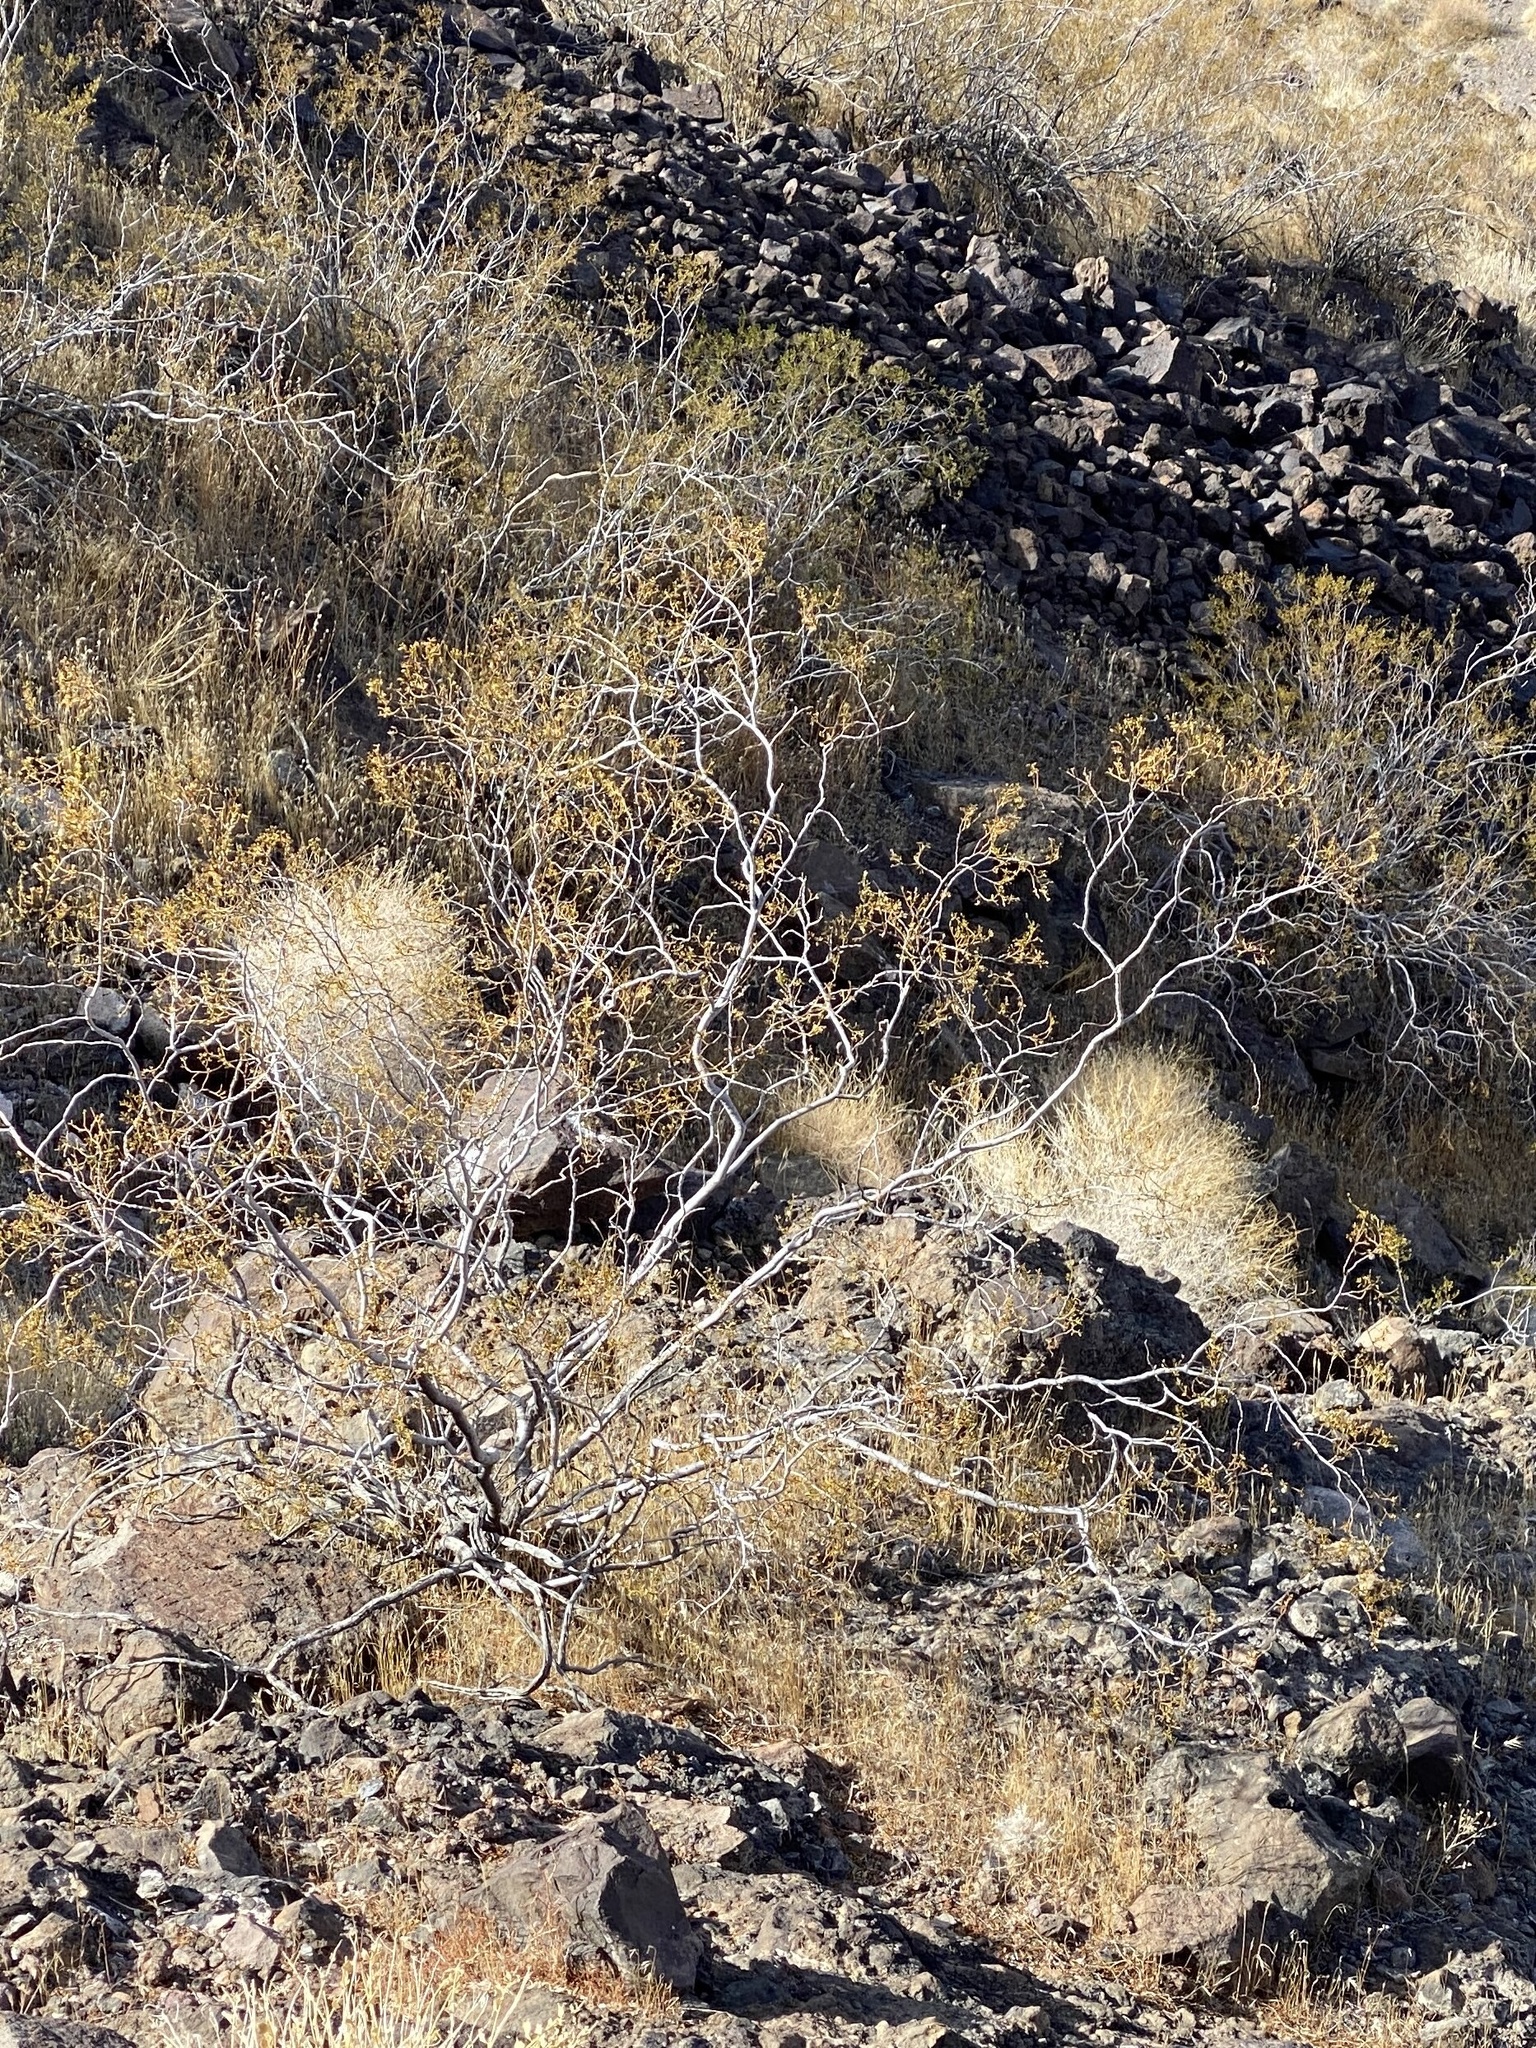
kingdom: Plantae
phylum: Tracheophyta
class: Magnoliopsida
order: Zygophyllales
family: Zygophyllaceae
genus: Larrea
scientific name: Larrea tridentata
